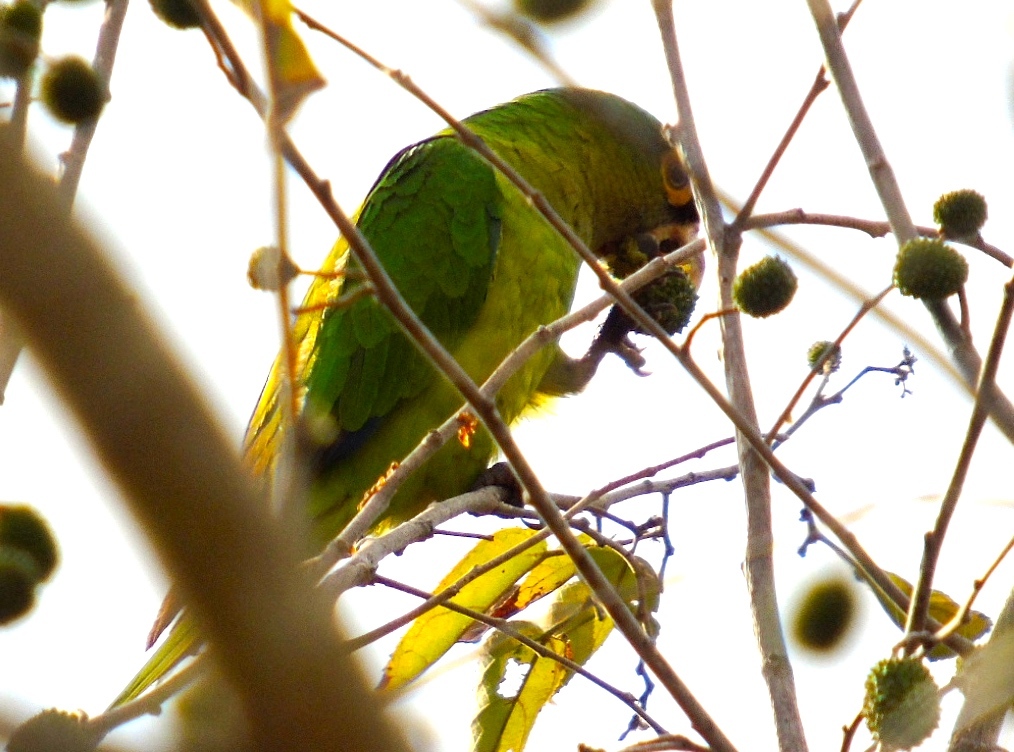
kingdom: Animalia
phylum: Chordata
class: Aves
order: Psittaciformes
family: Psittacidae
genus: Aratinga
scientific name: Aratinga canicularis
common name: Orange-fronted parakeet
